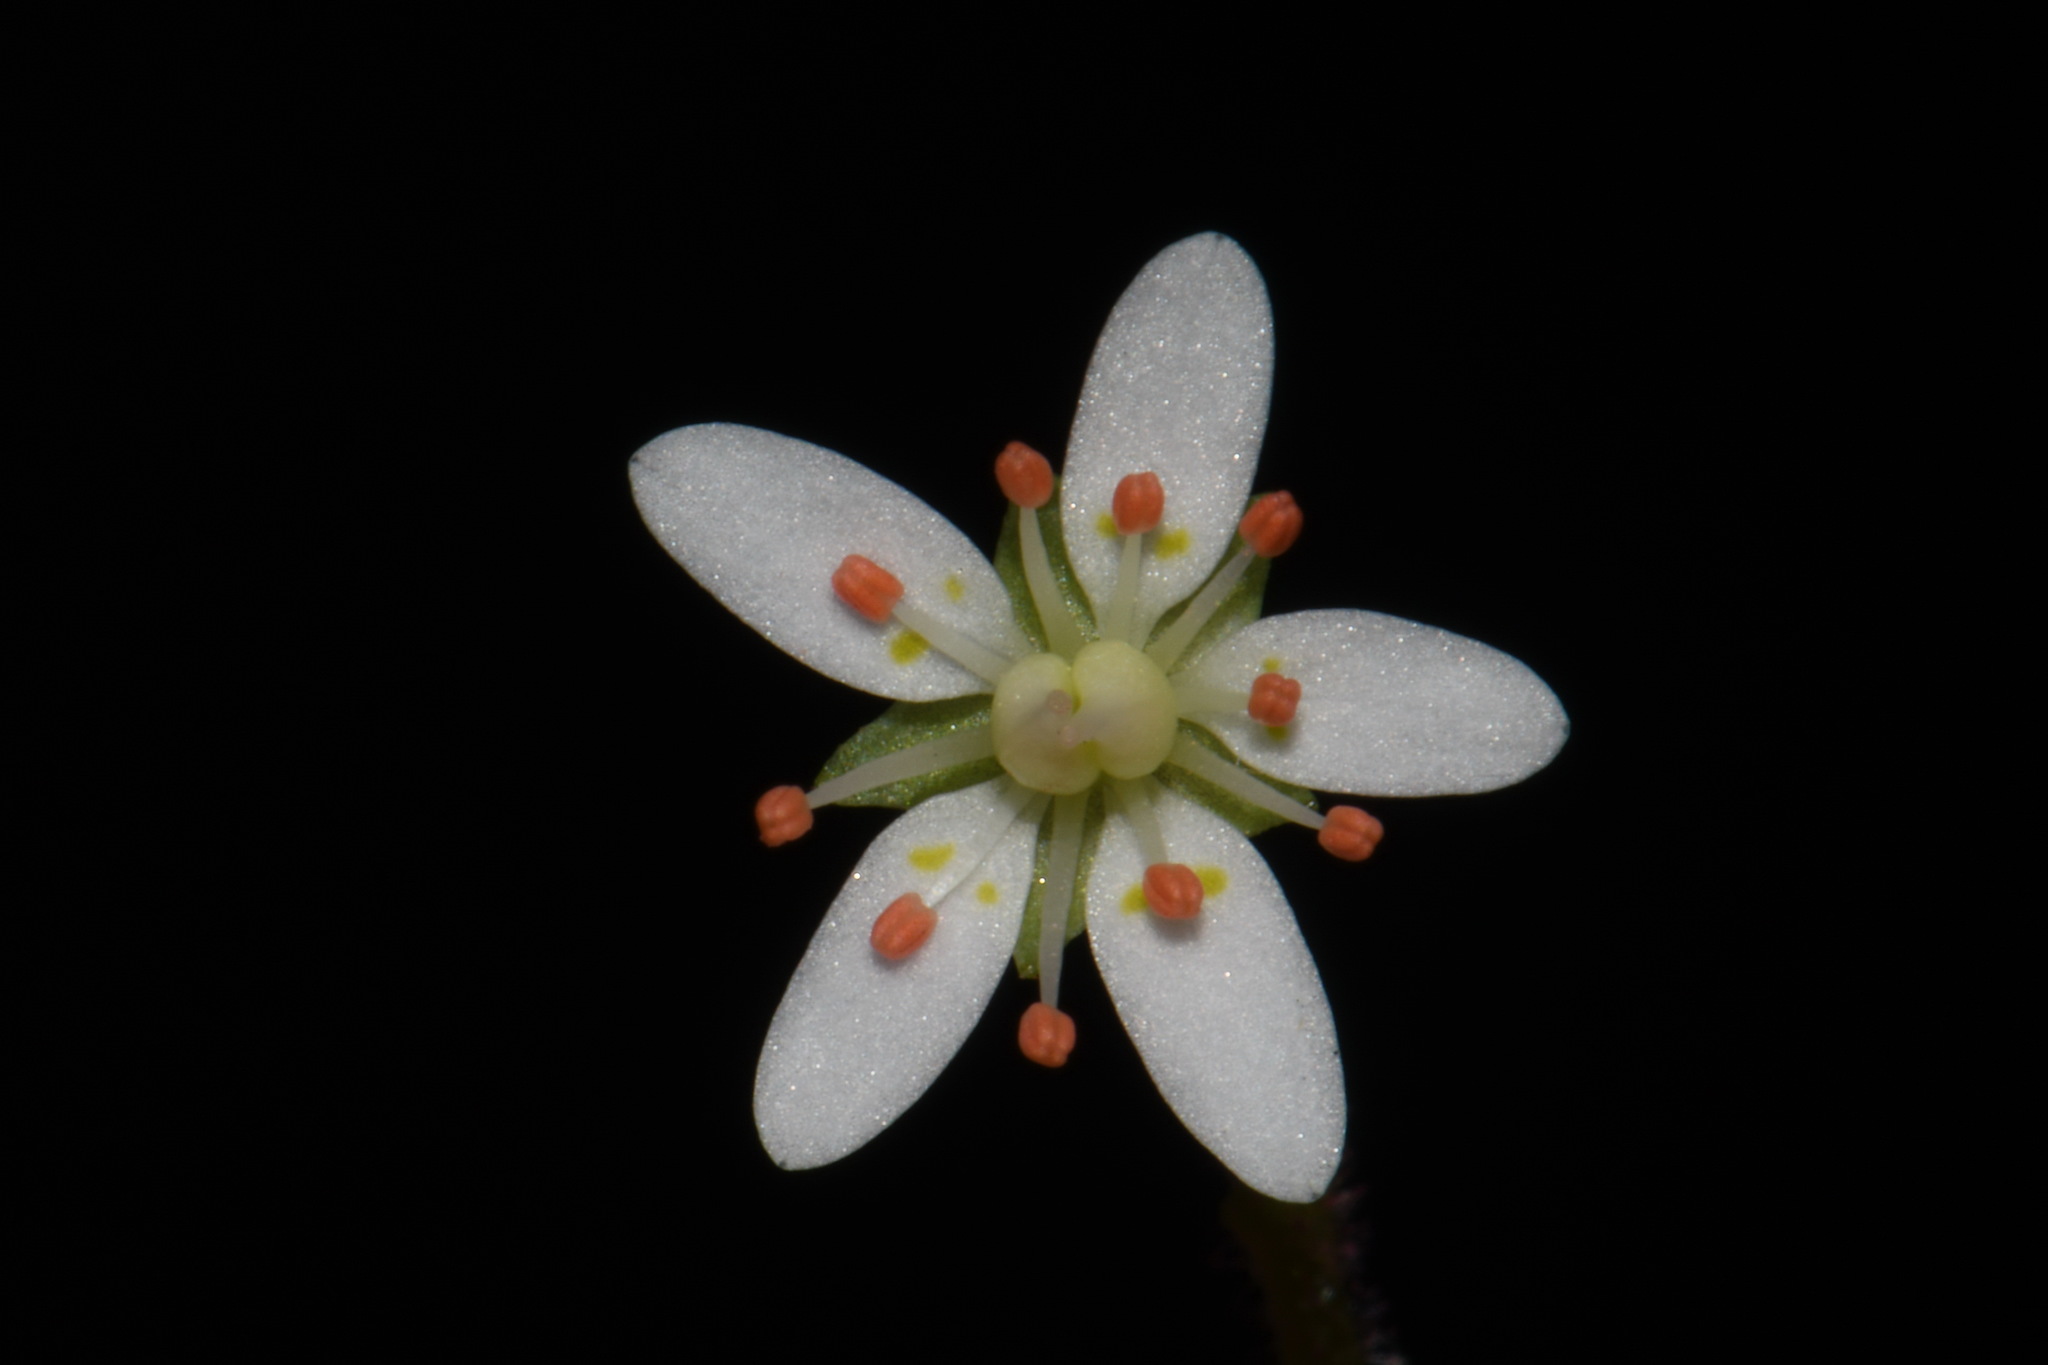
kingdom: Plantae
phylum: Tracheophyta
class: Magnoliopsida
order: Saxifragales
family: Saxifragaceae
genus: Micranthes
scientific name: Micranthes careyana
